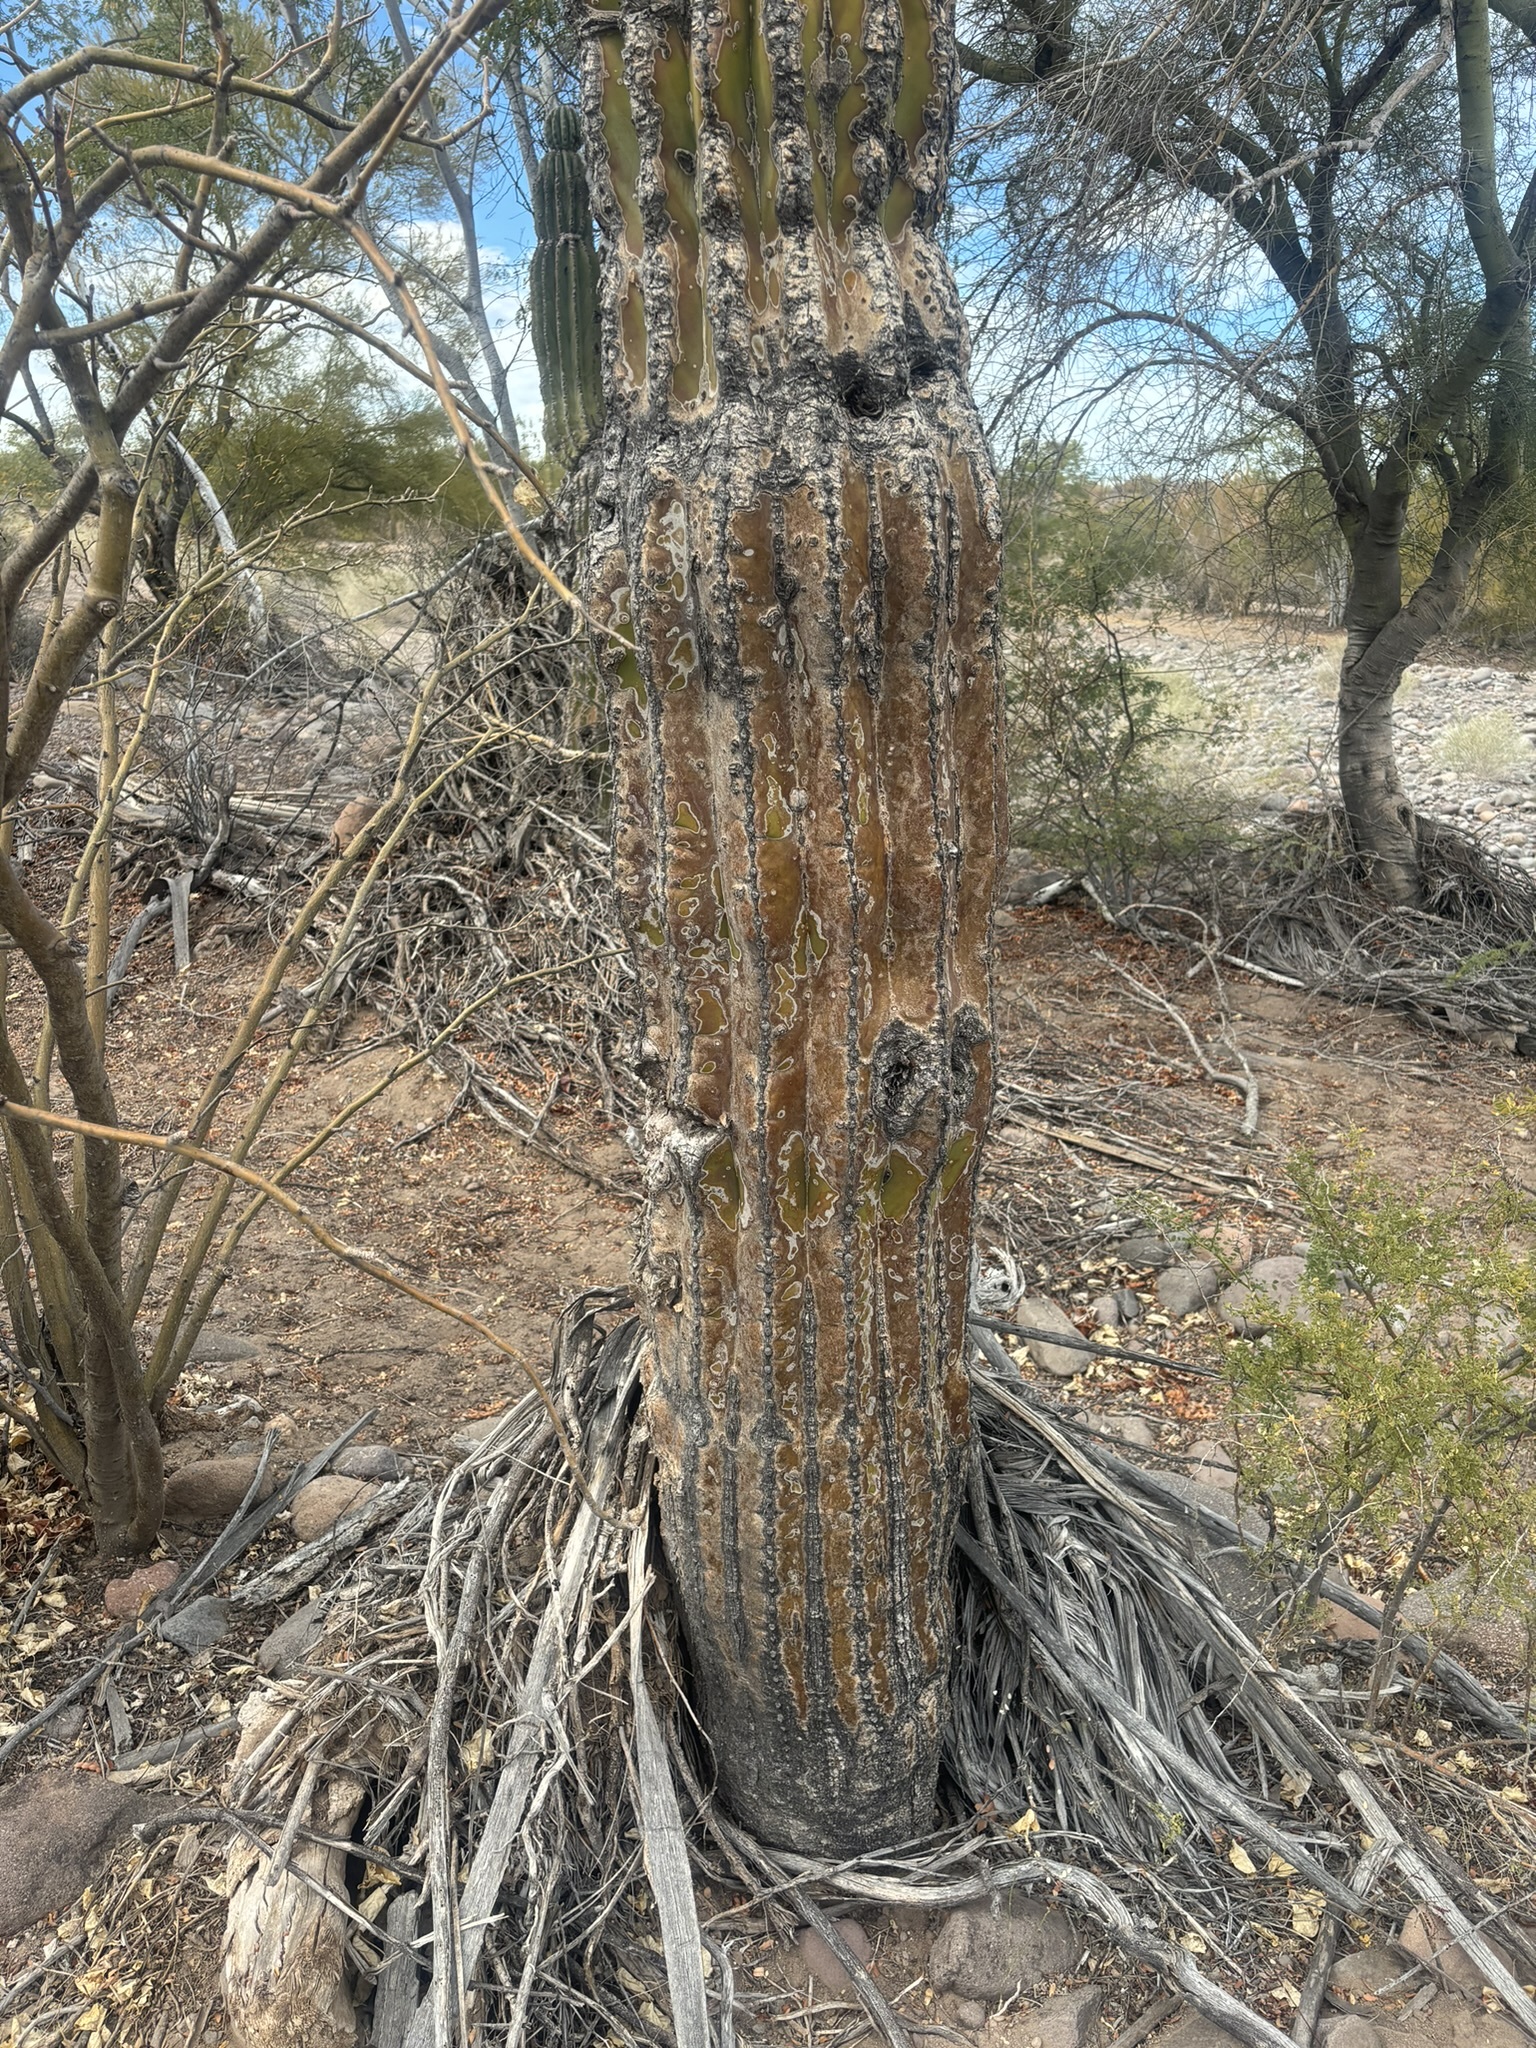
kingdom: Plantae
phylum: Tracheophyta
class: Magnoliopsida
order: Caryophyllales
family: Cactaceae
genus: Pachycereus
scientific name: Pachycereus pringlei
